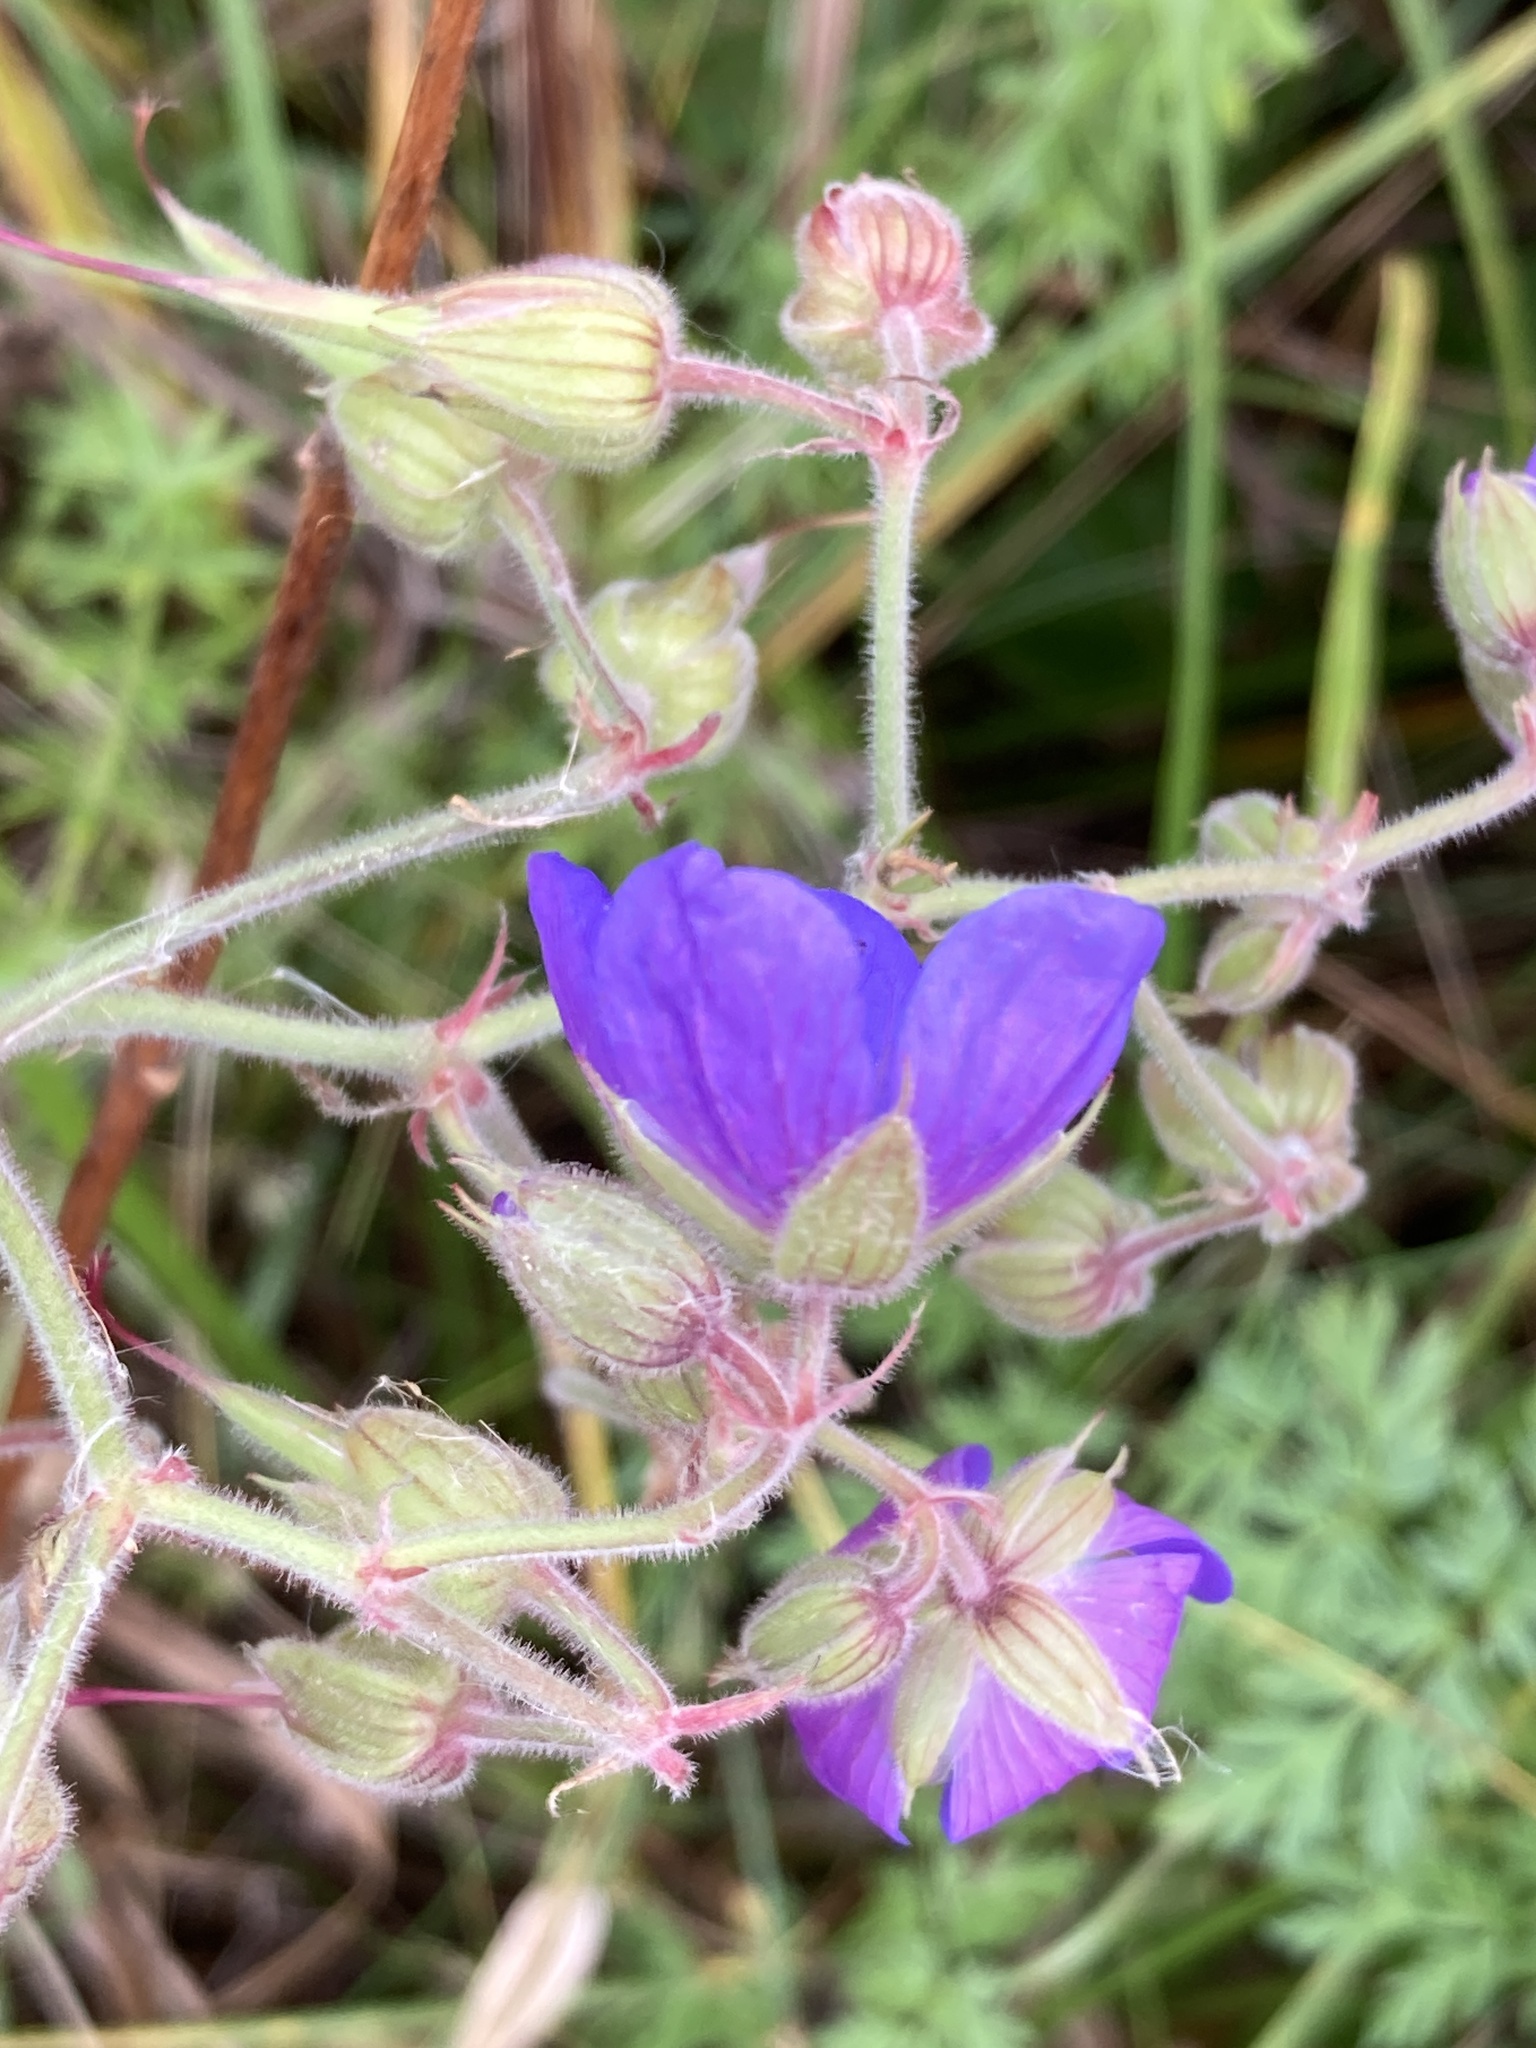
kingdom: Plantae
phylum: Tracheophyta
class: Magnoliopsida
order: Geraniales
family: Geraniaceae
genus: Geranium
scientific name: Geranium pratense
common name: Meadow crane's-bill
